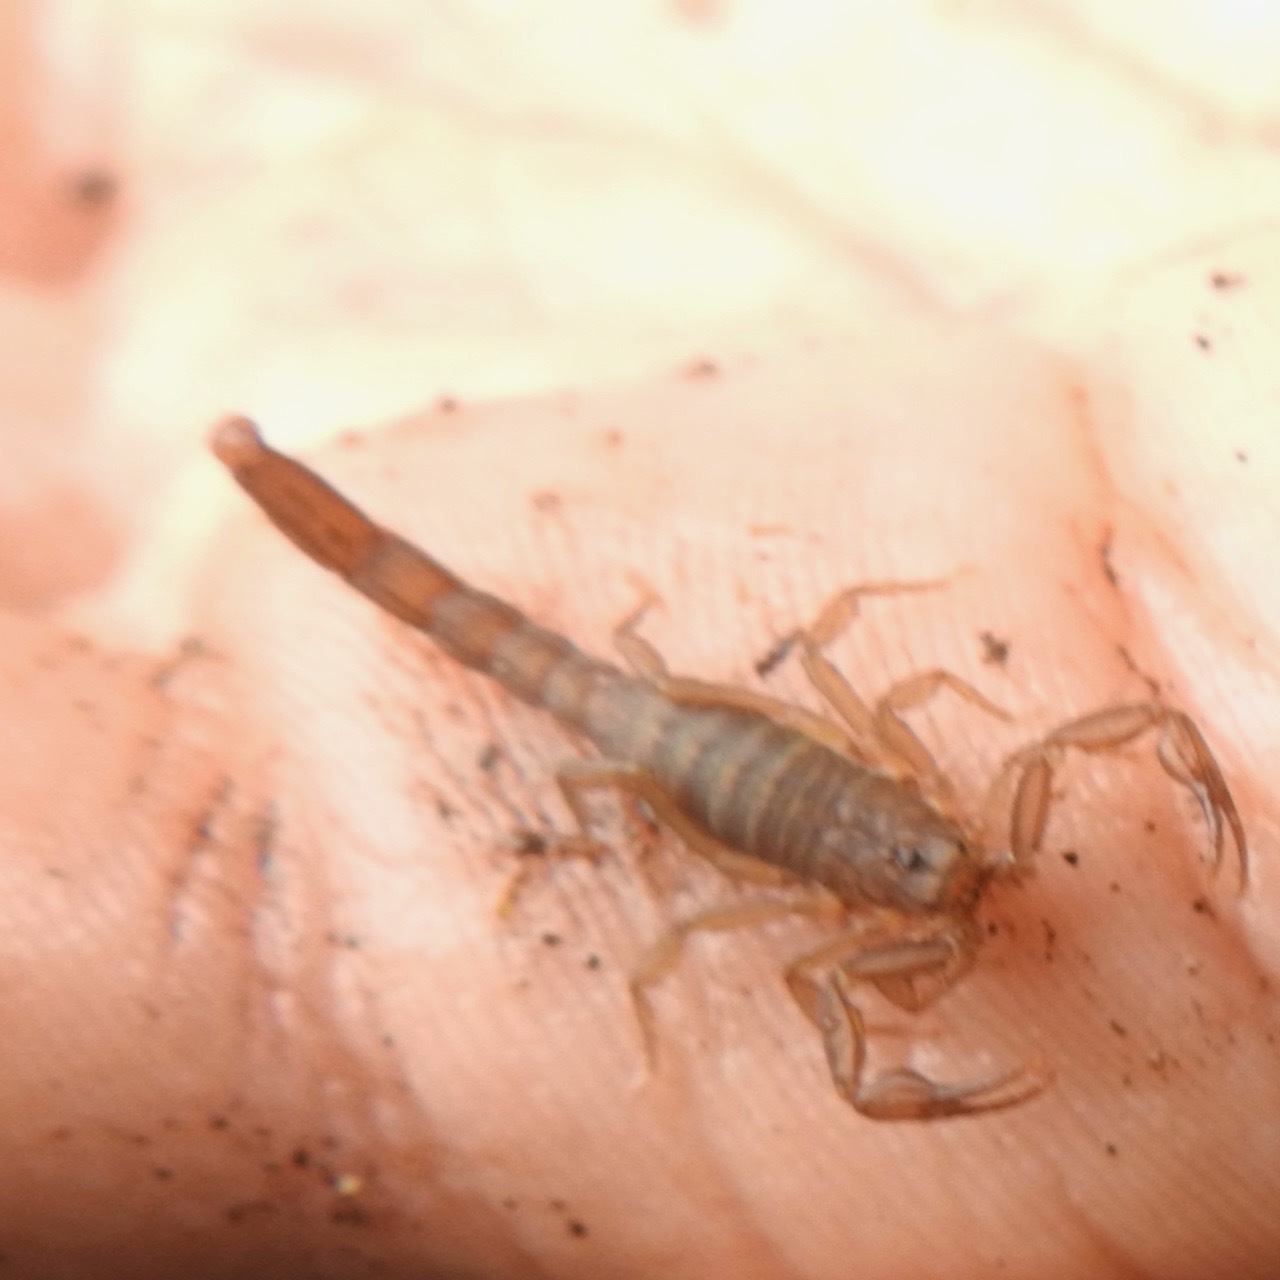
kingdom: Animalia
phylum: Arthropoda
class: Arachnida
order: Scorpiones
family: Vaejovidae
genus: Serradigitus
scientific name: Serradigitus gertschi
